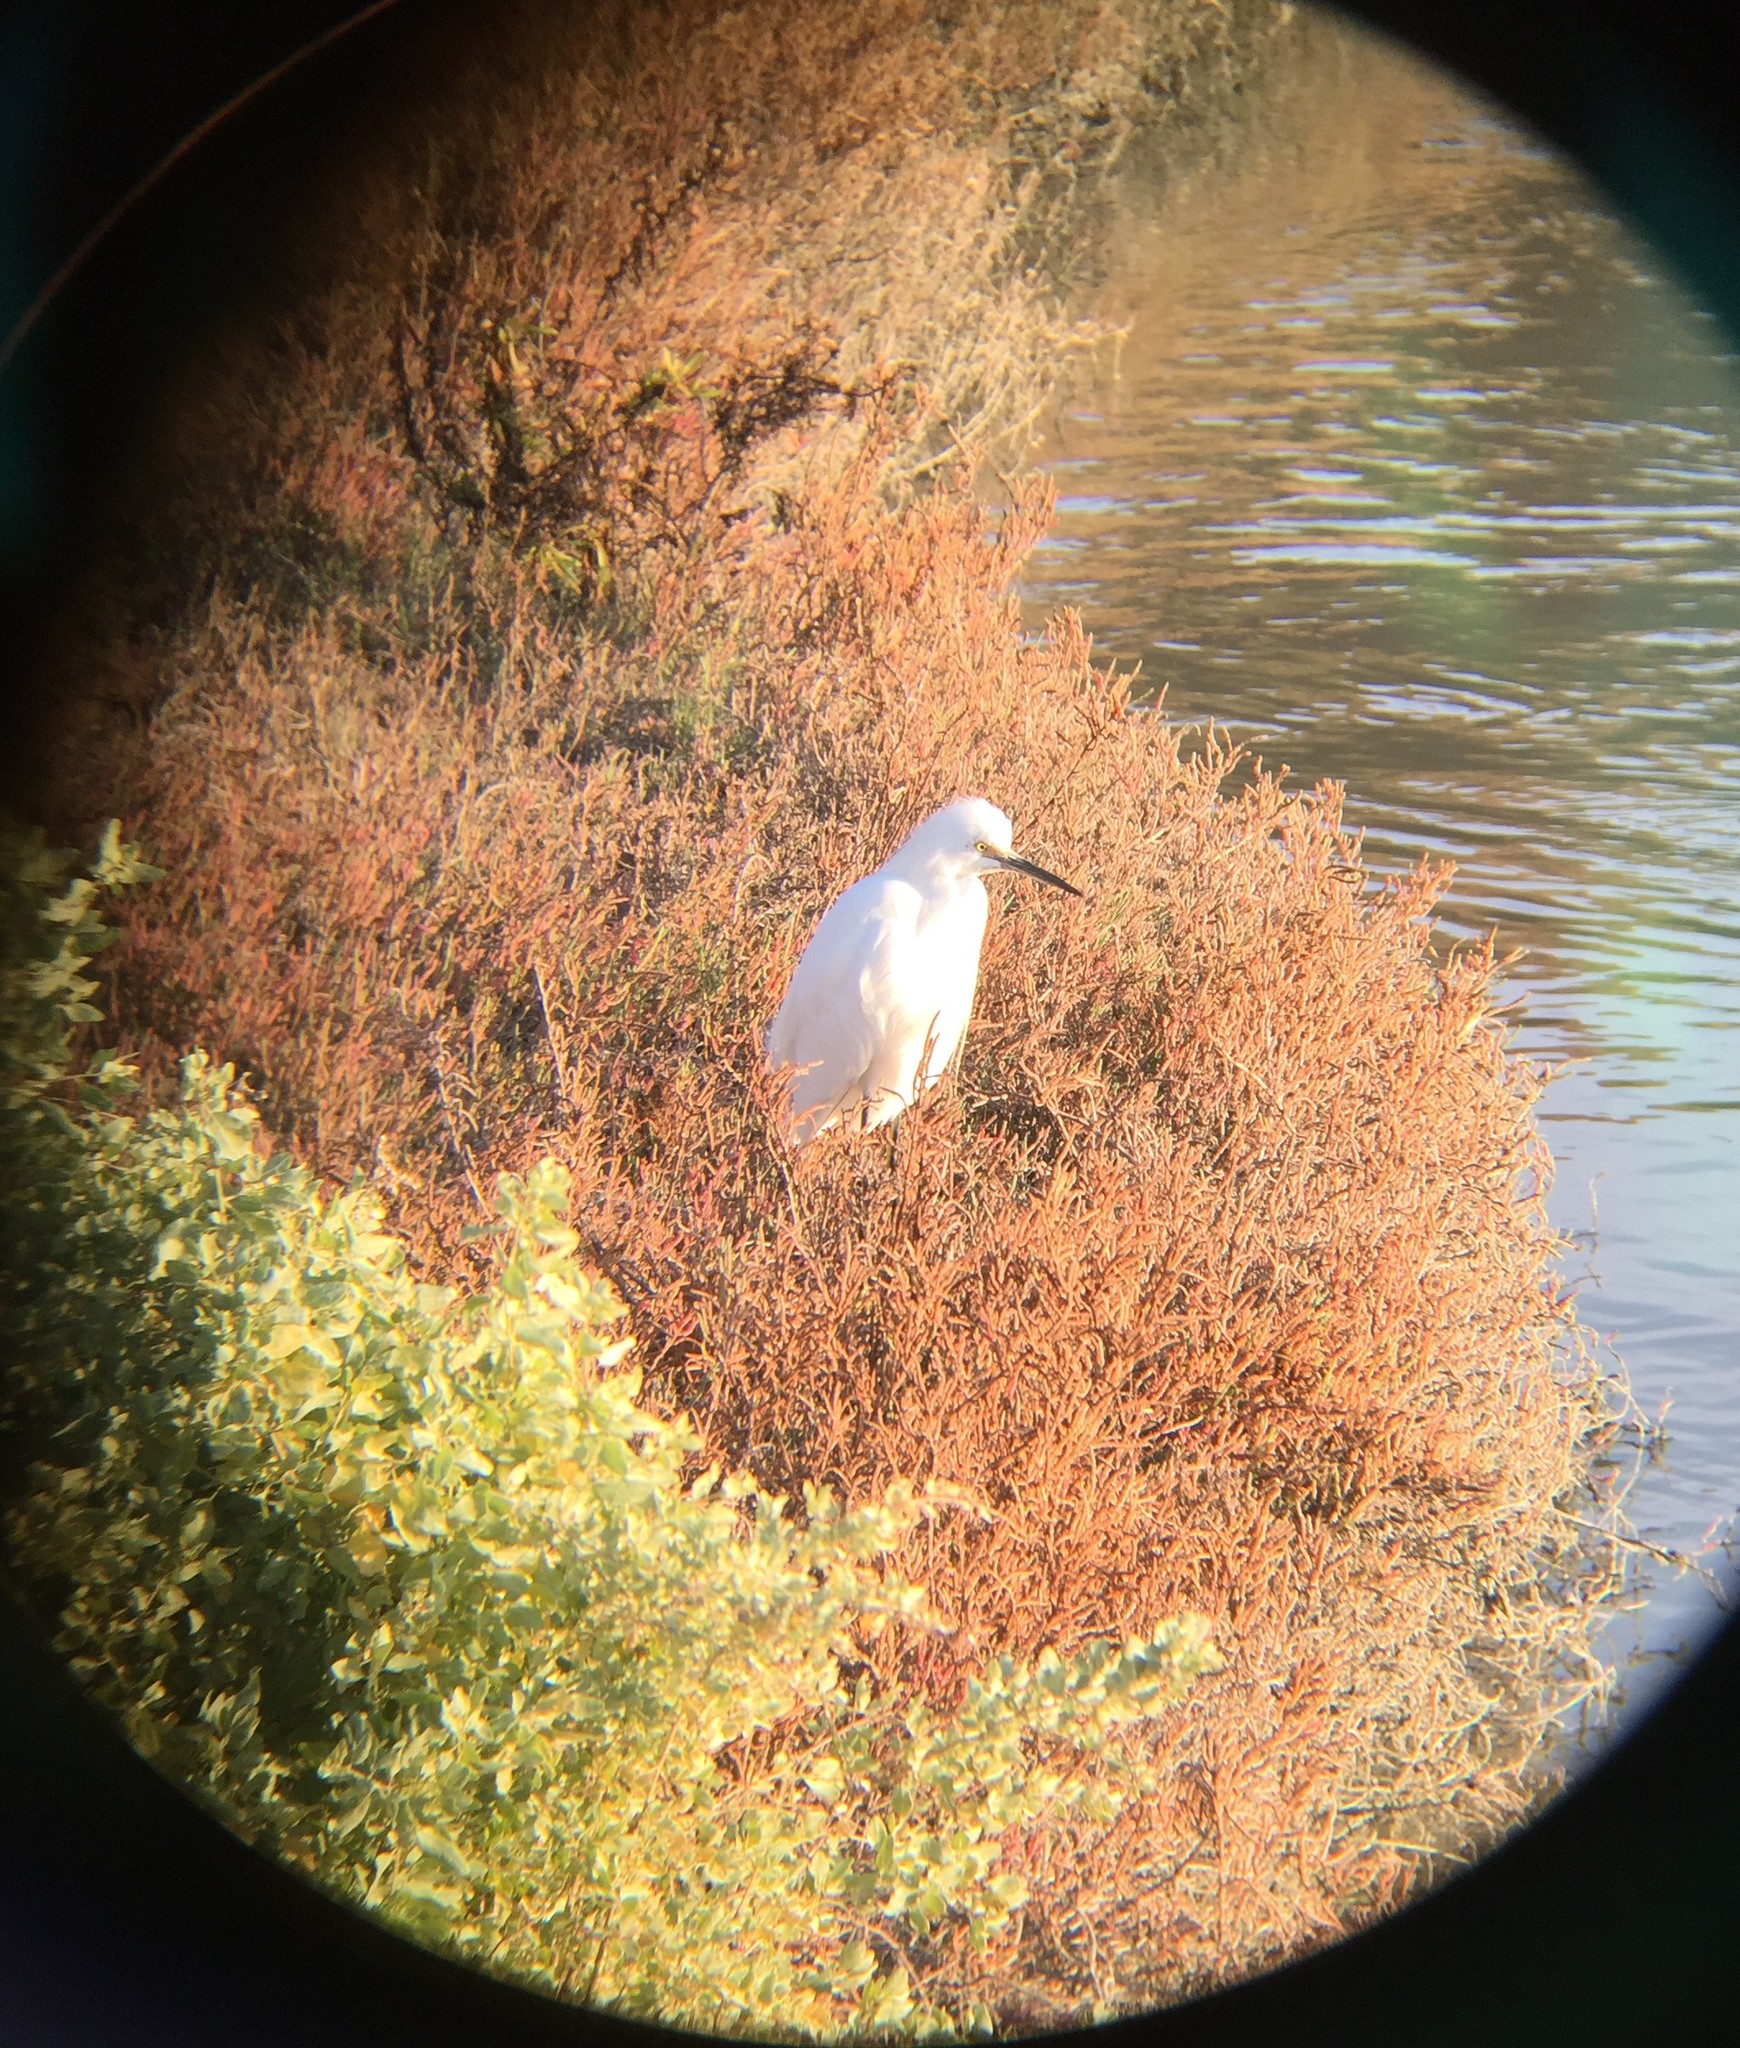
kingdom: Animalia
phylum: Chordata
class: Aves
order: Pelecaniformes
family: Ardeidae
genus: Egretta
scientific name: Egretta thula
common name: Snowy egret
